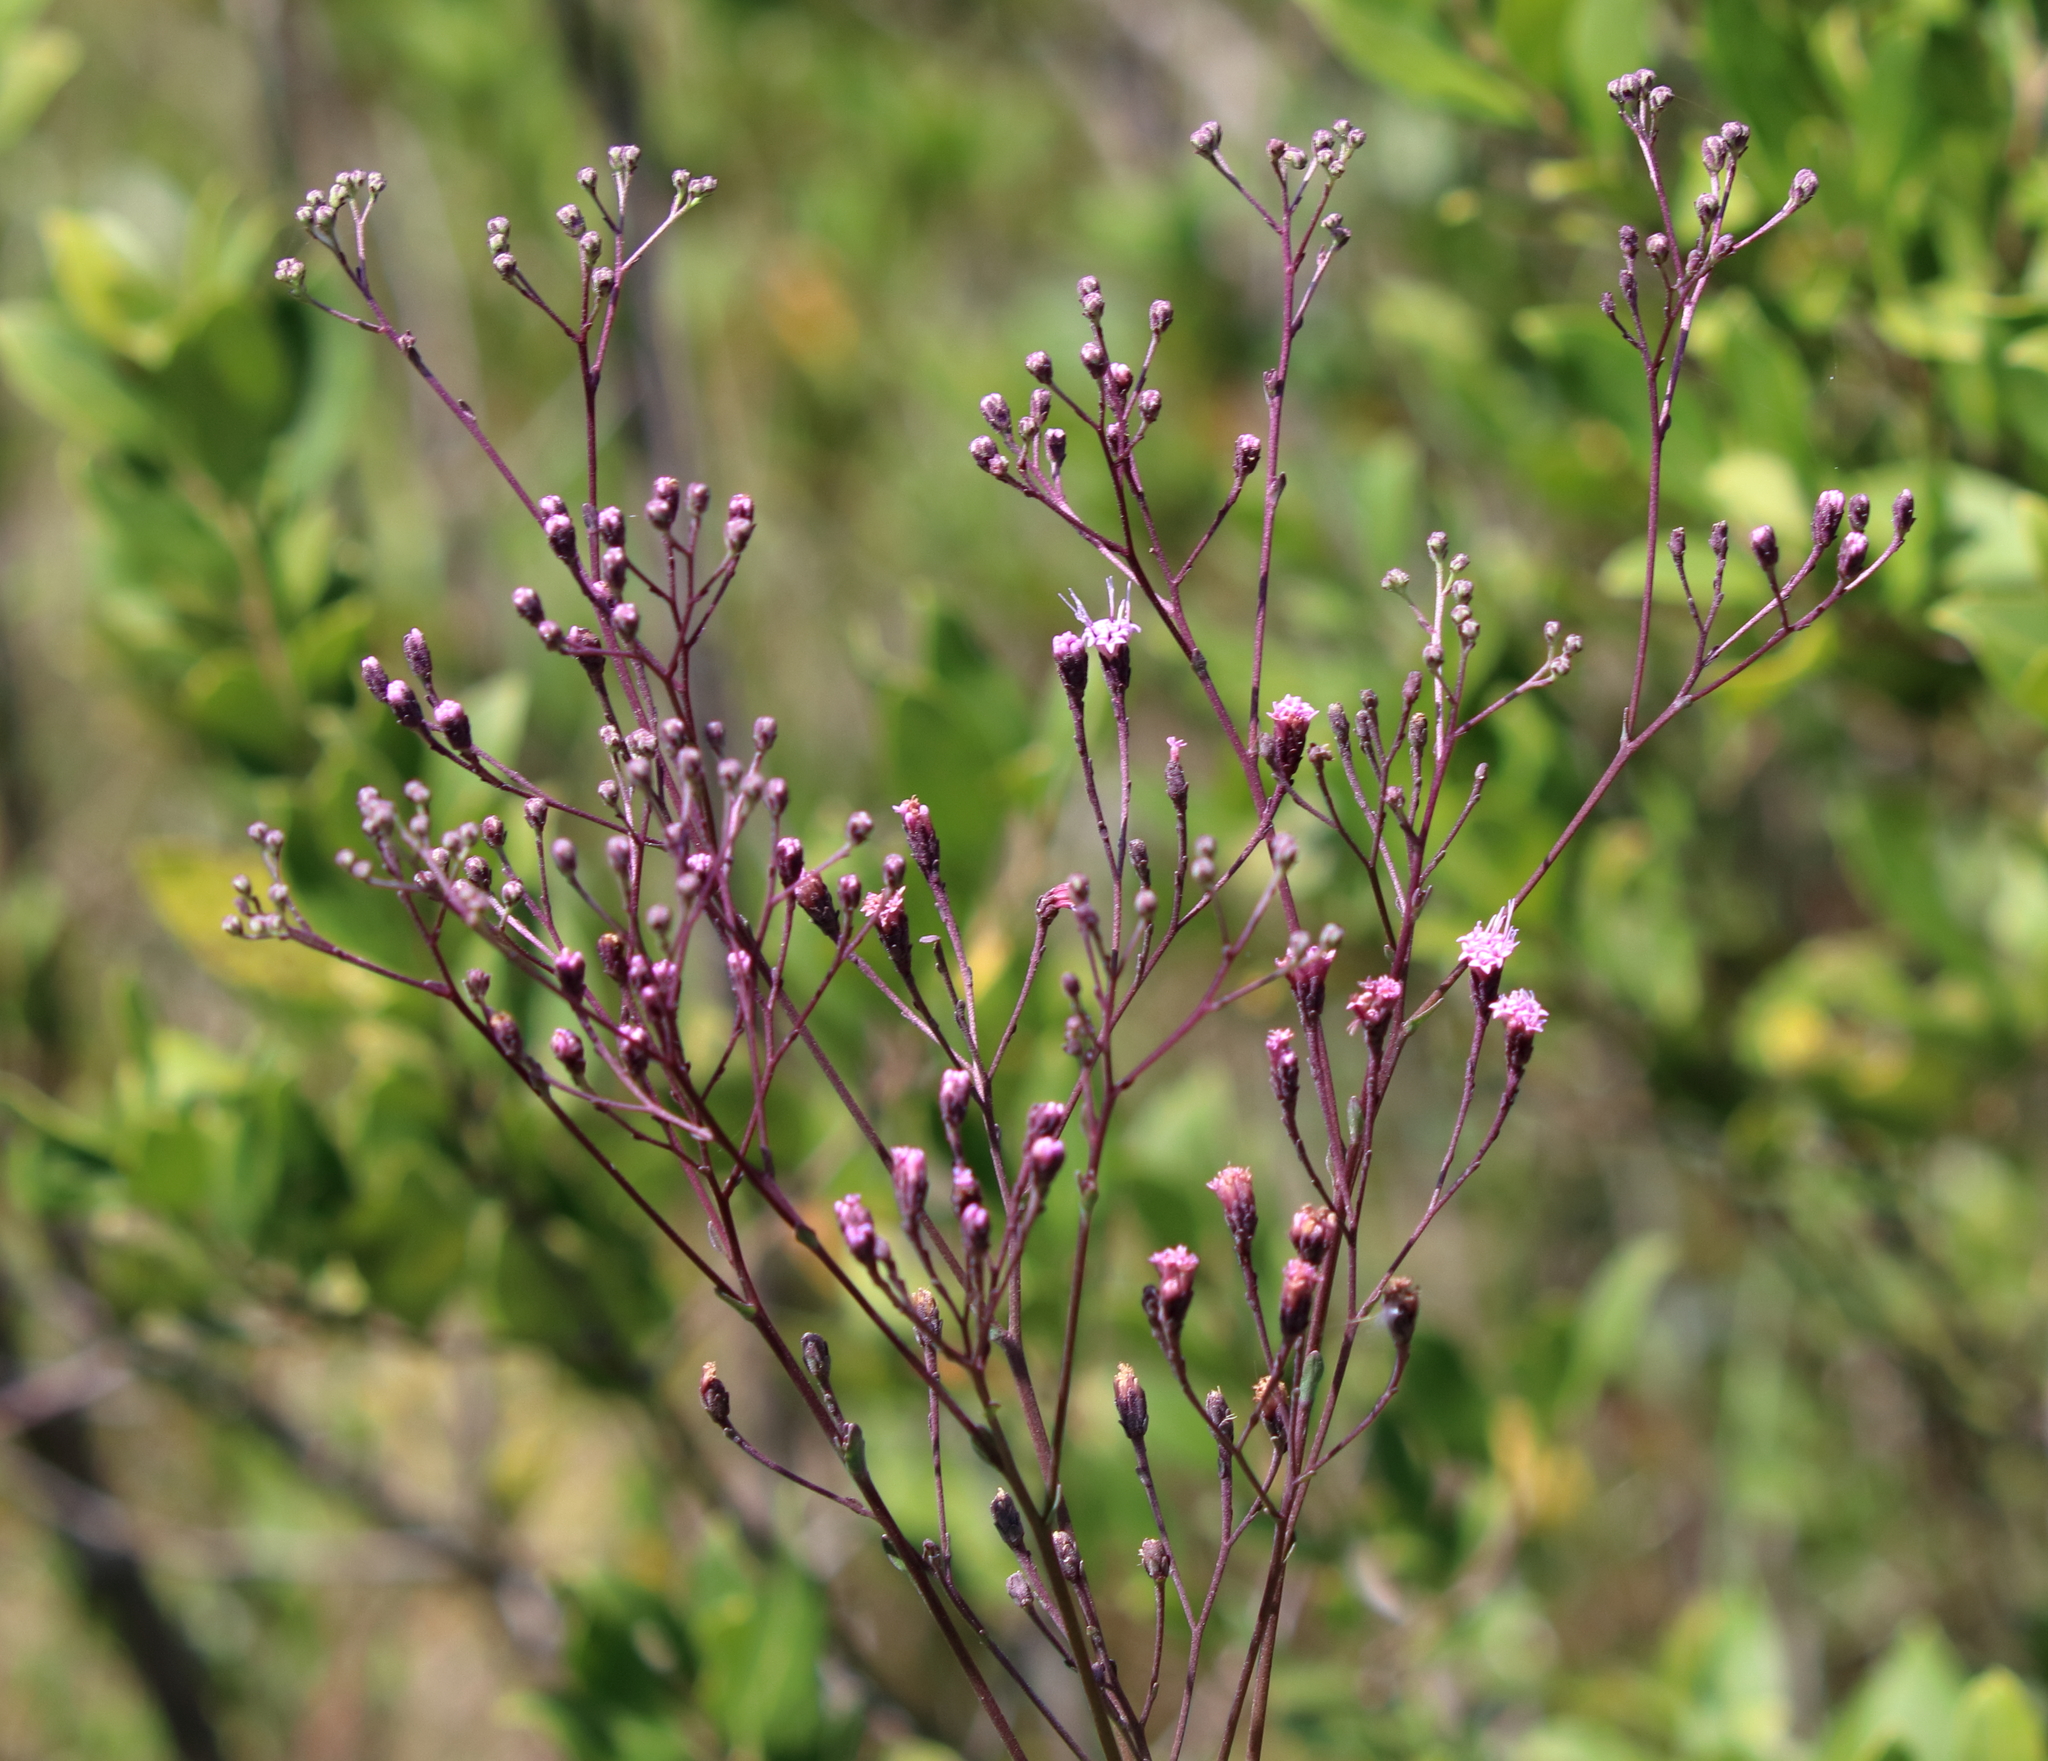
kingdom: Plantae
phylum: Tracheophyta
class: Magnoliopsida
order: Asterales
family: Asteraceae
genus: Carphephorus
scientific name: Carphephorus odoratissimus
